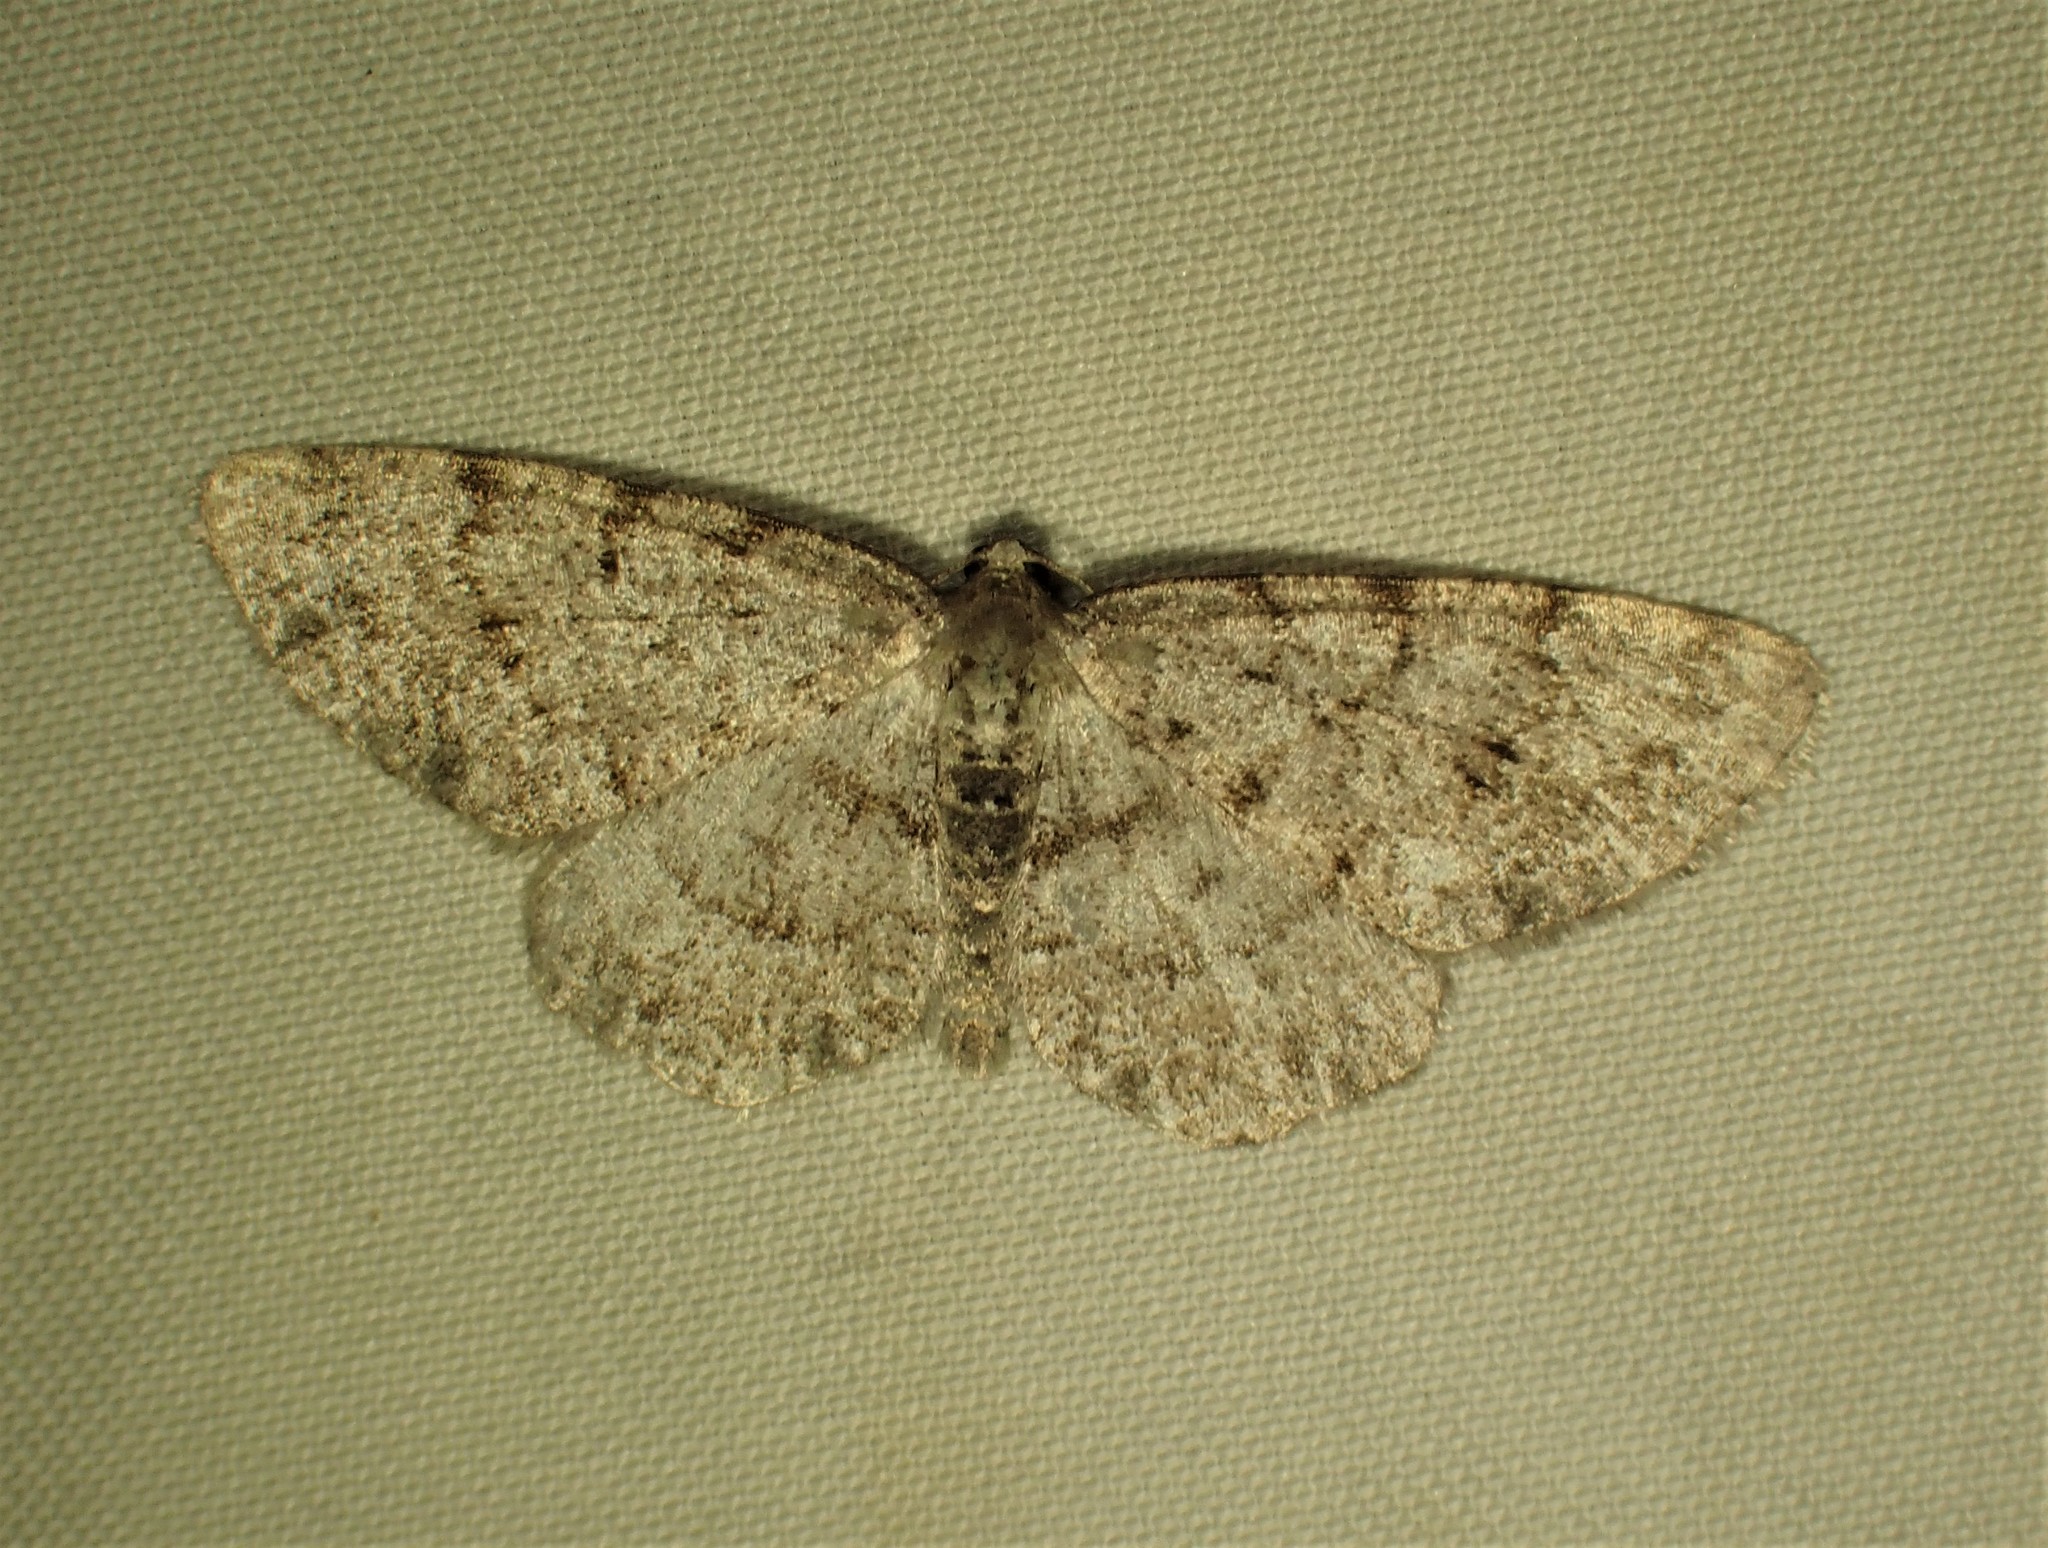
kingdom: Animalia
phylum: Arthropoda
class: Insecta
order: Lepidoptera
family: Geometridae
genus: Aethalura
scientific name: Aethalura intertexta
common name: Four-barred gray
